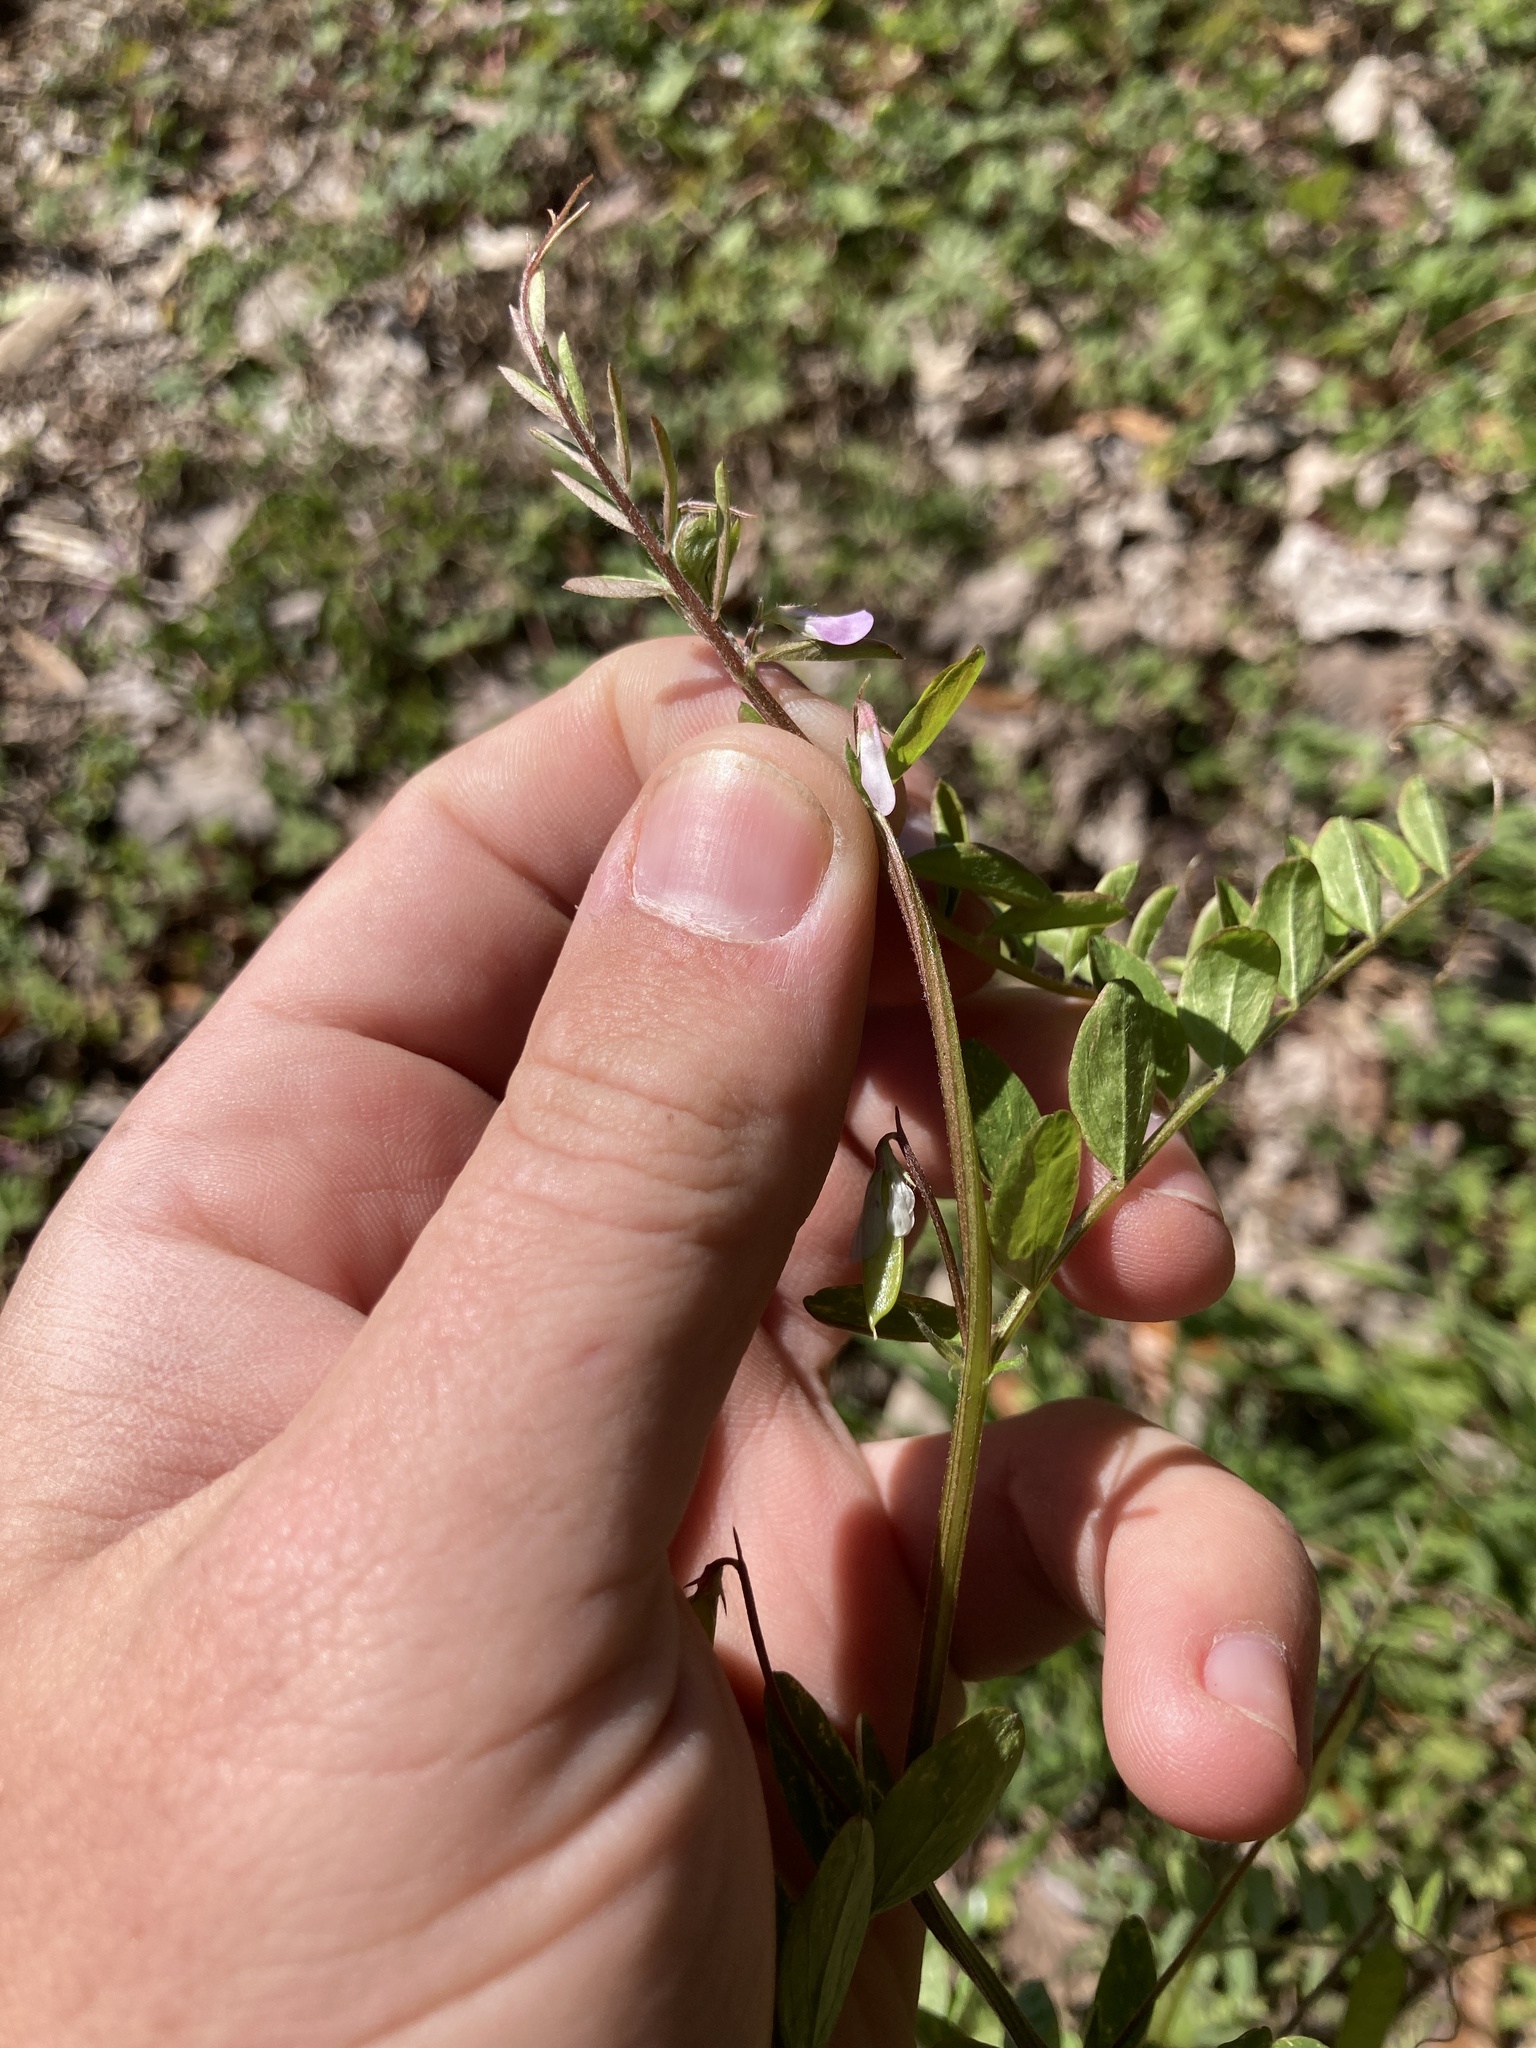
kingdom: Plantae
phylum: Tracheophyta
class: Magnoliopsida
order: Fabales
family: Fabaceae
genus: Vicia
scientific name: Vicia ludoviciana
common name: Louisiana vetch
